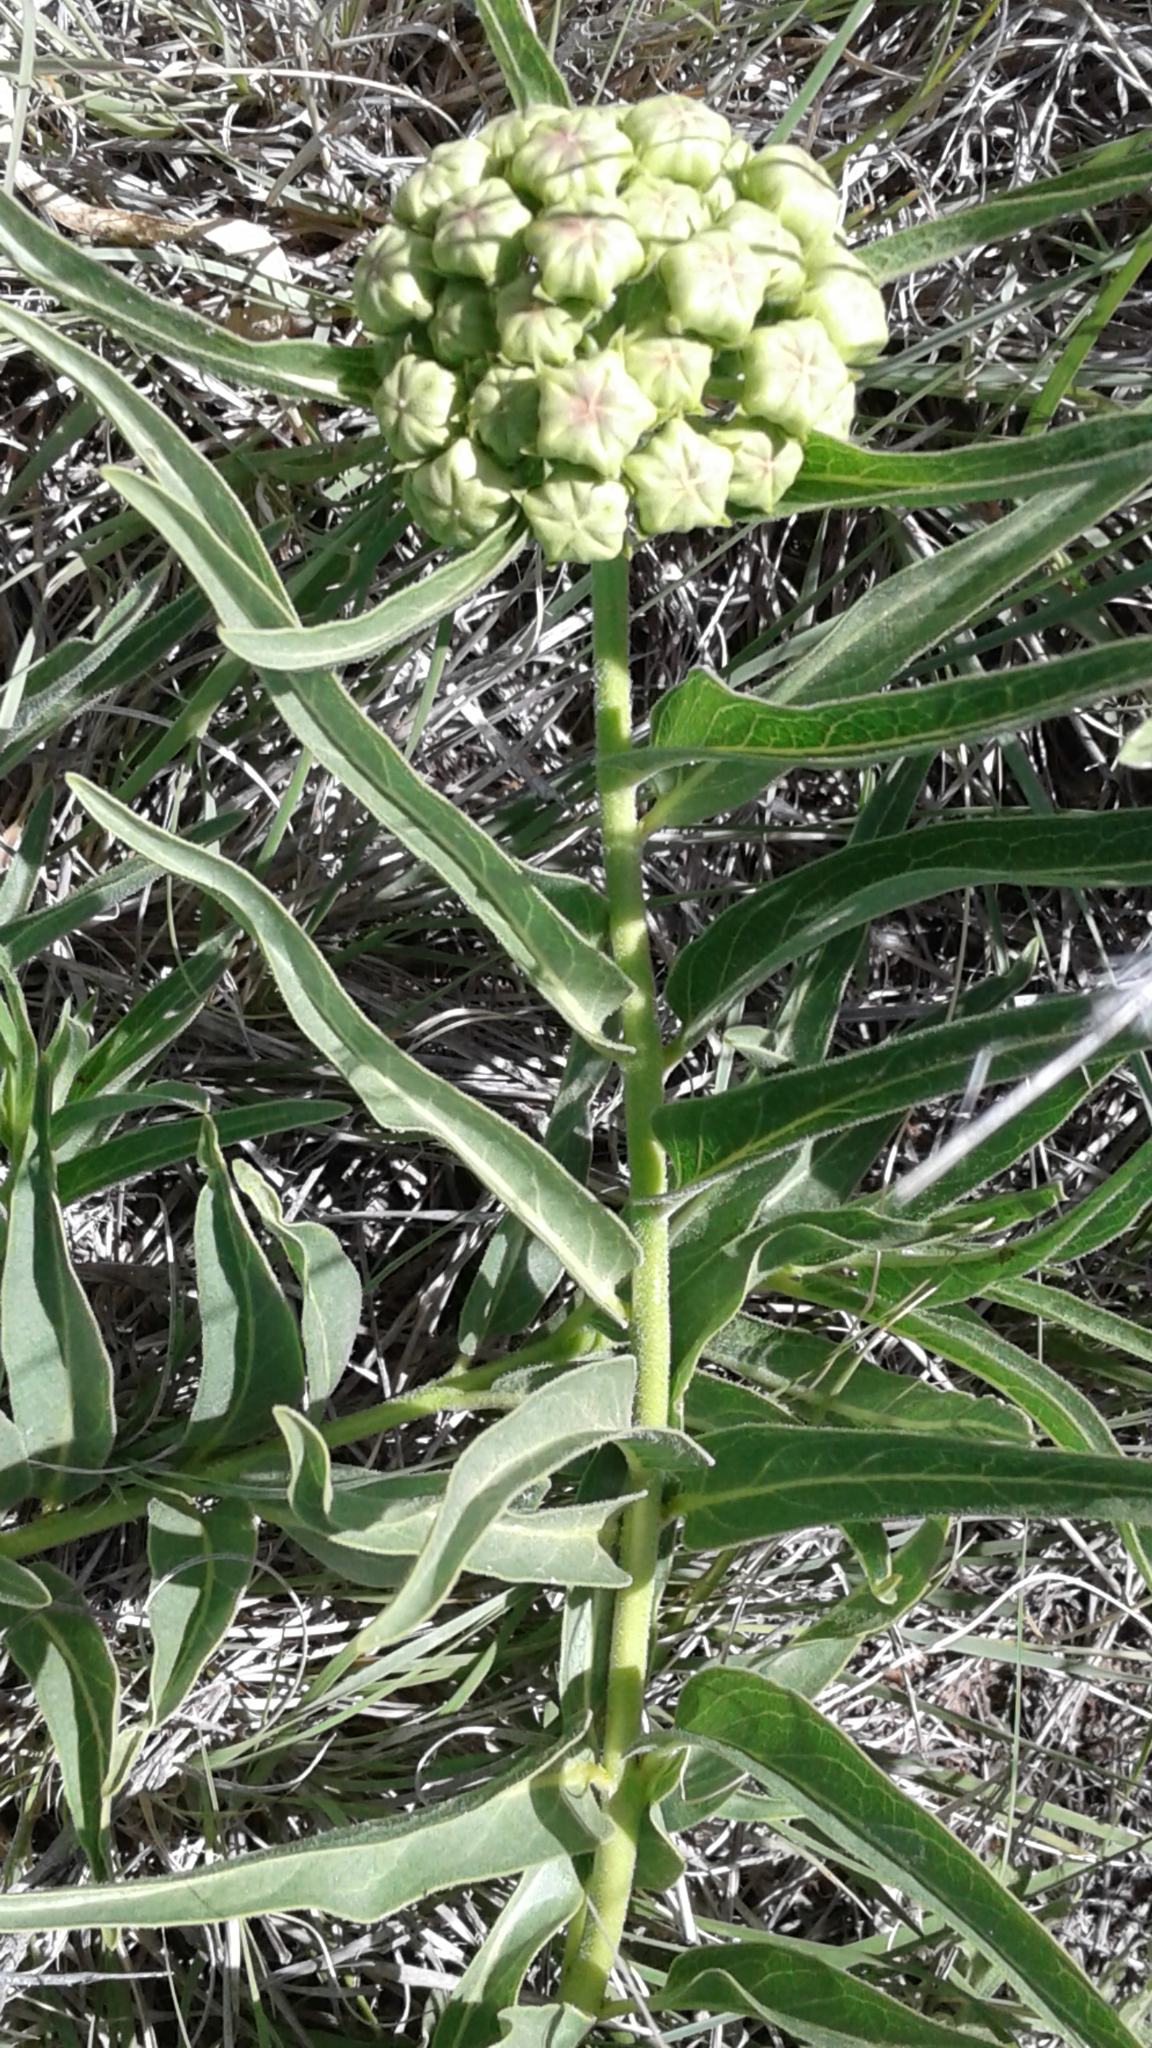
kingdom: Plantae
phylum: Tracheophyta
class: Magnoliopsida
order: Gentianales
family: Apocynaceae
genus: Asclepias
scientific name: Asclepias asperula
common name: Antelope horns
